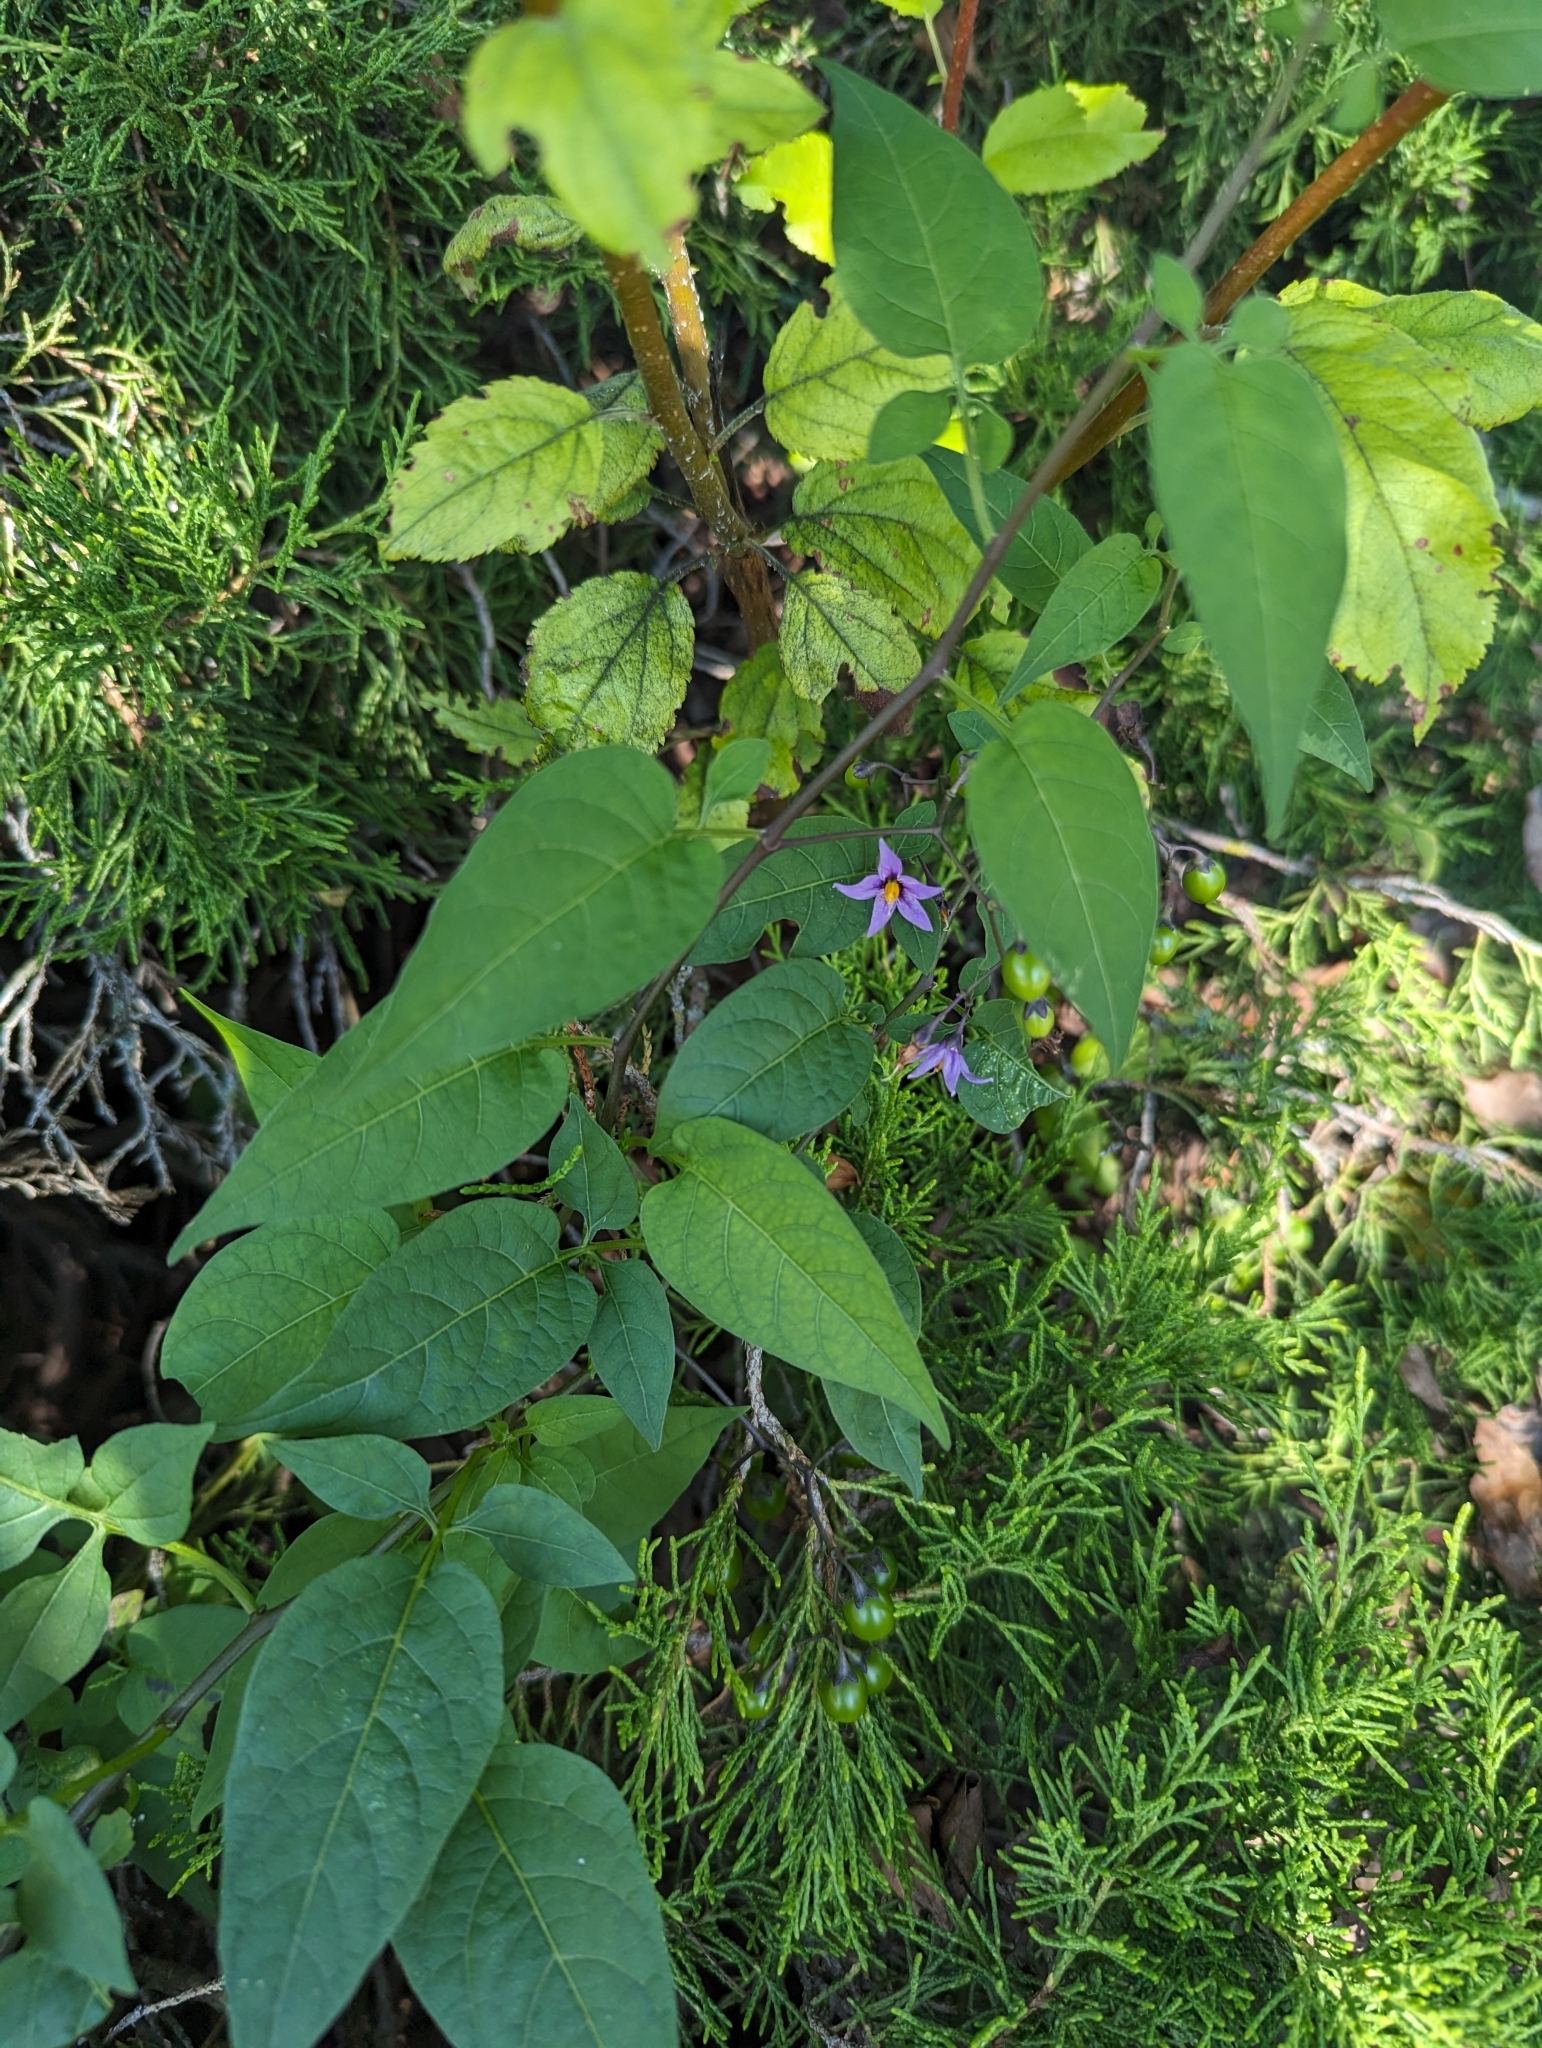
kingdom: Plantae
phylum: Tracheophyta
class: Magnoliopsida
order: Solanales
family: Solanaceae
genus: Solanum
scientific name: Solanum dulcamara
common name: Climbing nightshade
